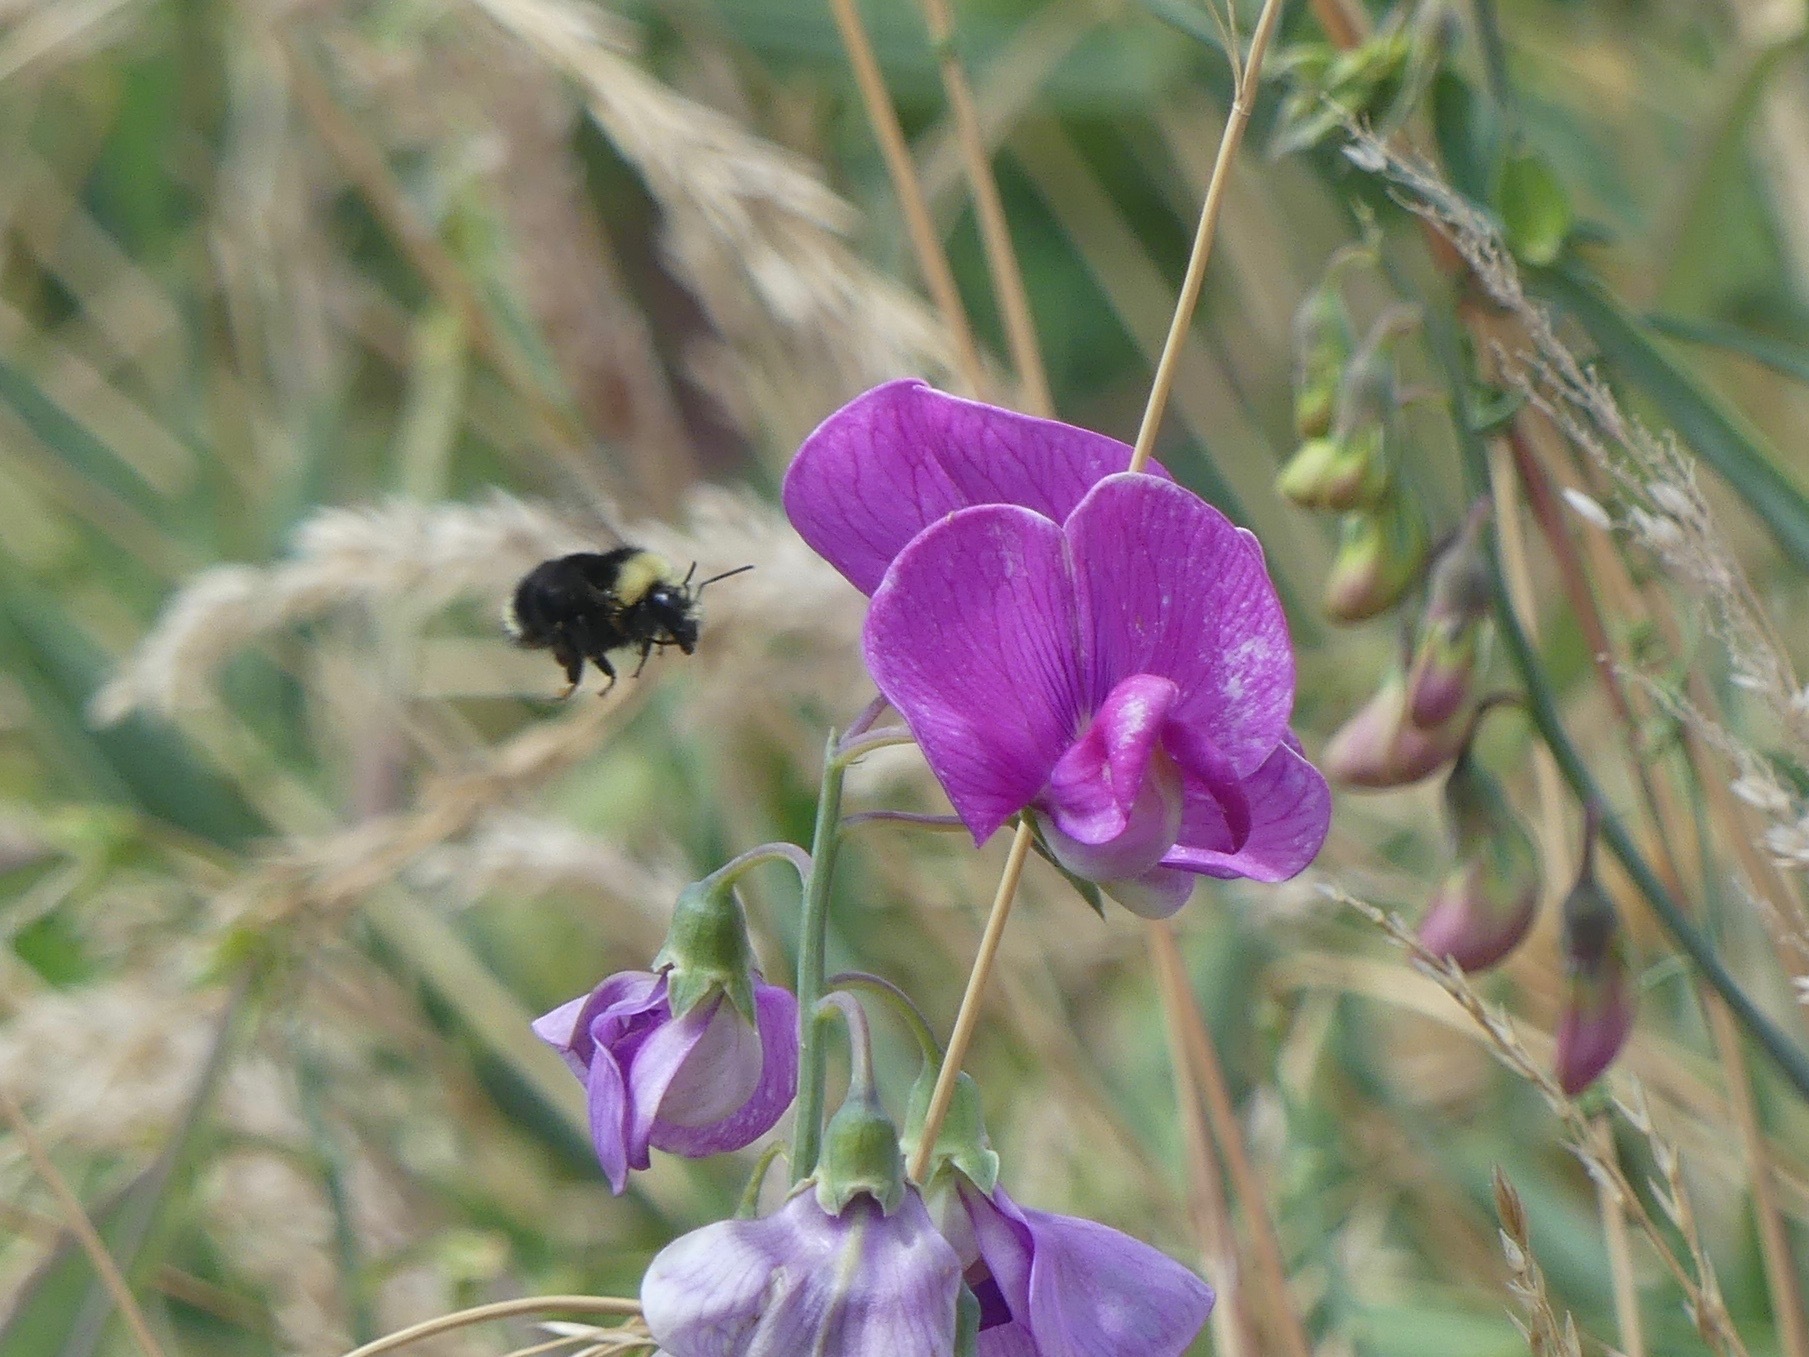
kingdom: Plantae
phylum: Tracheophyta
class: Magnoliopsida
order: Fabales
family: Fabaceae
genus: Lathyrus
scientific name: Lathyrus latifolius
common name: Perennial pea
